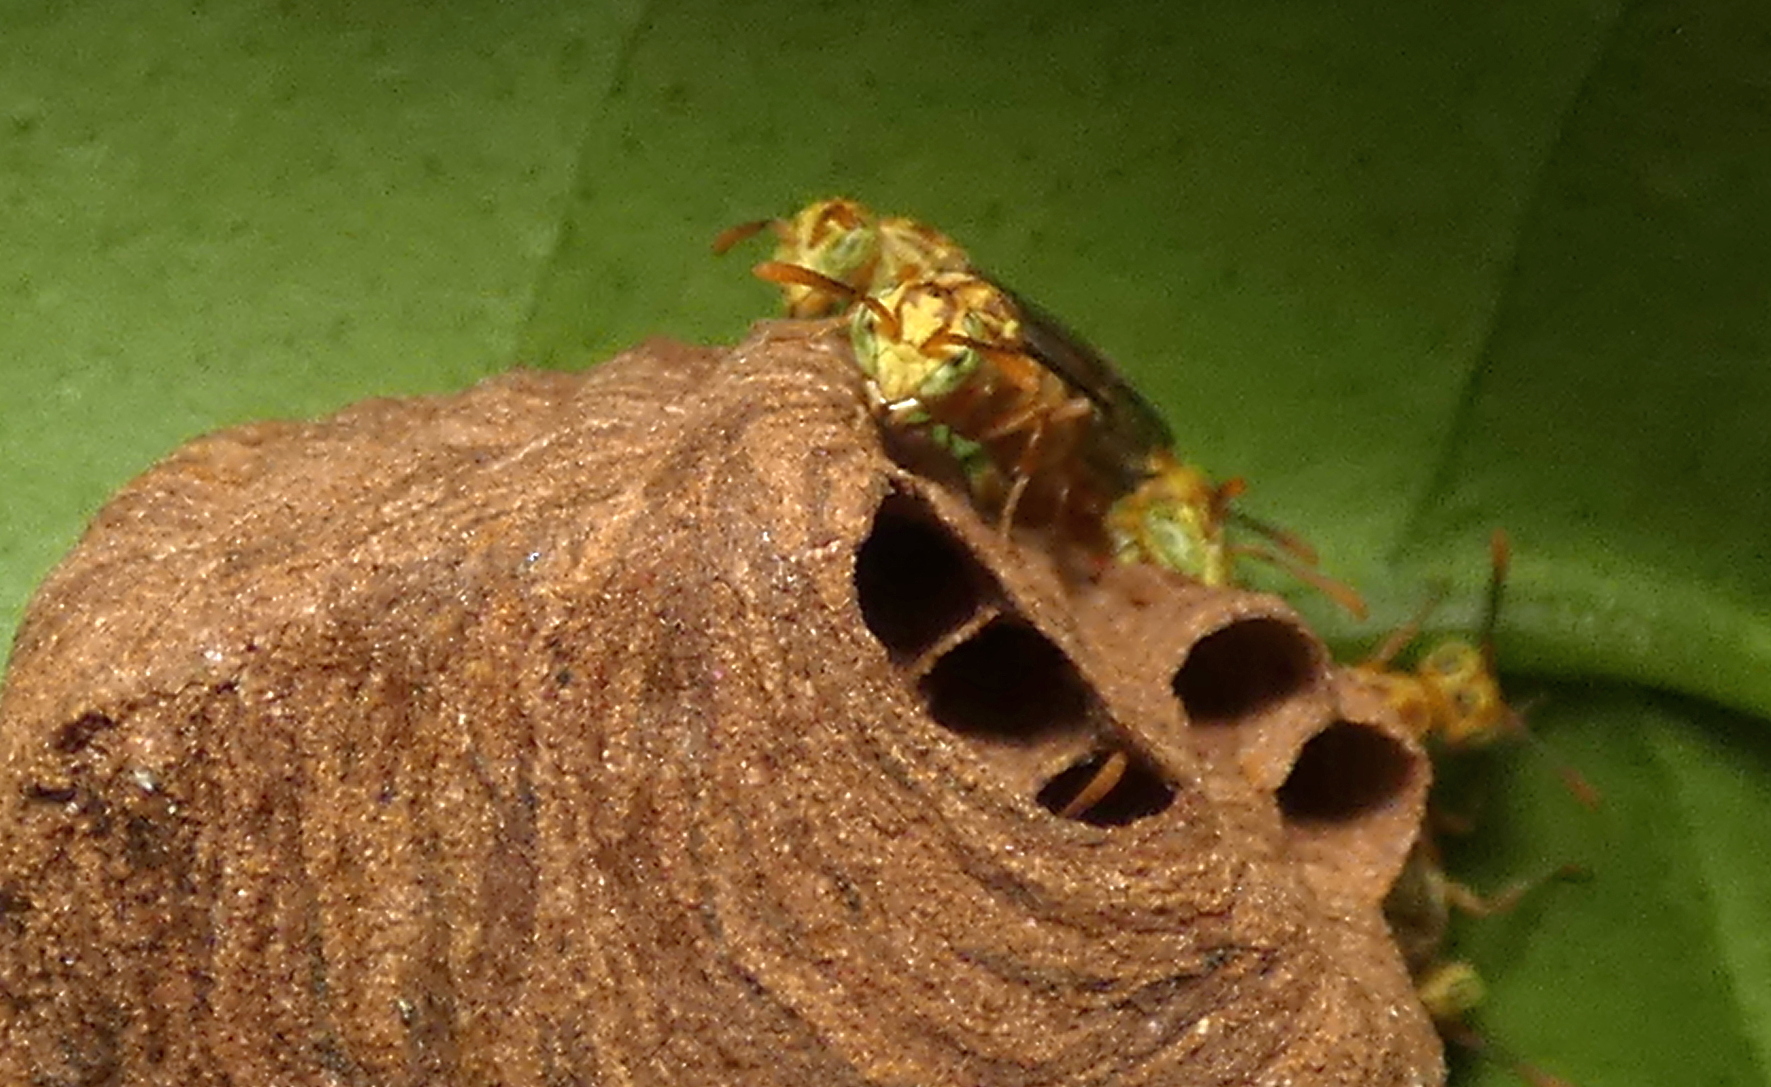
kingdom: Animalia
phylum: Arthropoda
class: Insecta
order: Hymenoptera
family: Vespidae
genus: Protopolybia
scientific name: Protopolybia potiguara
